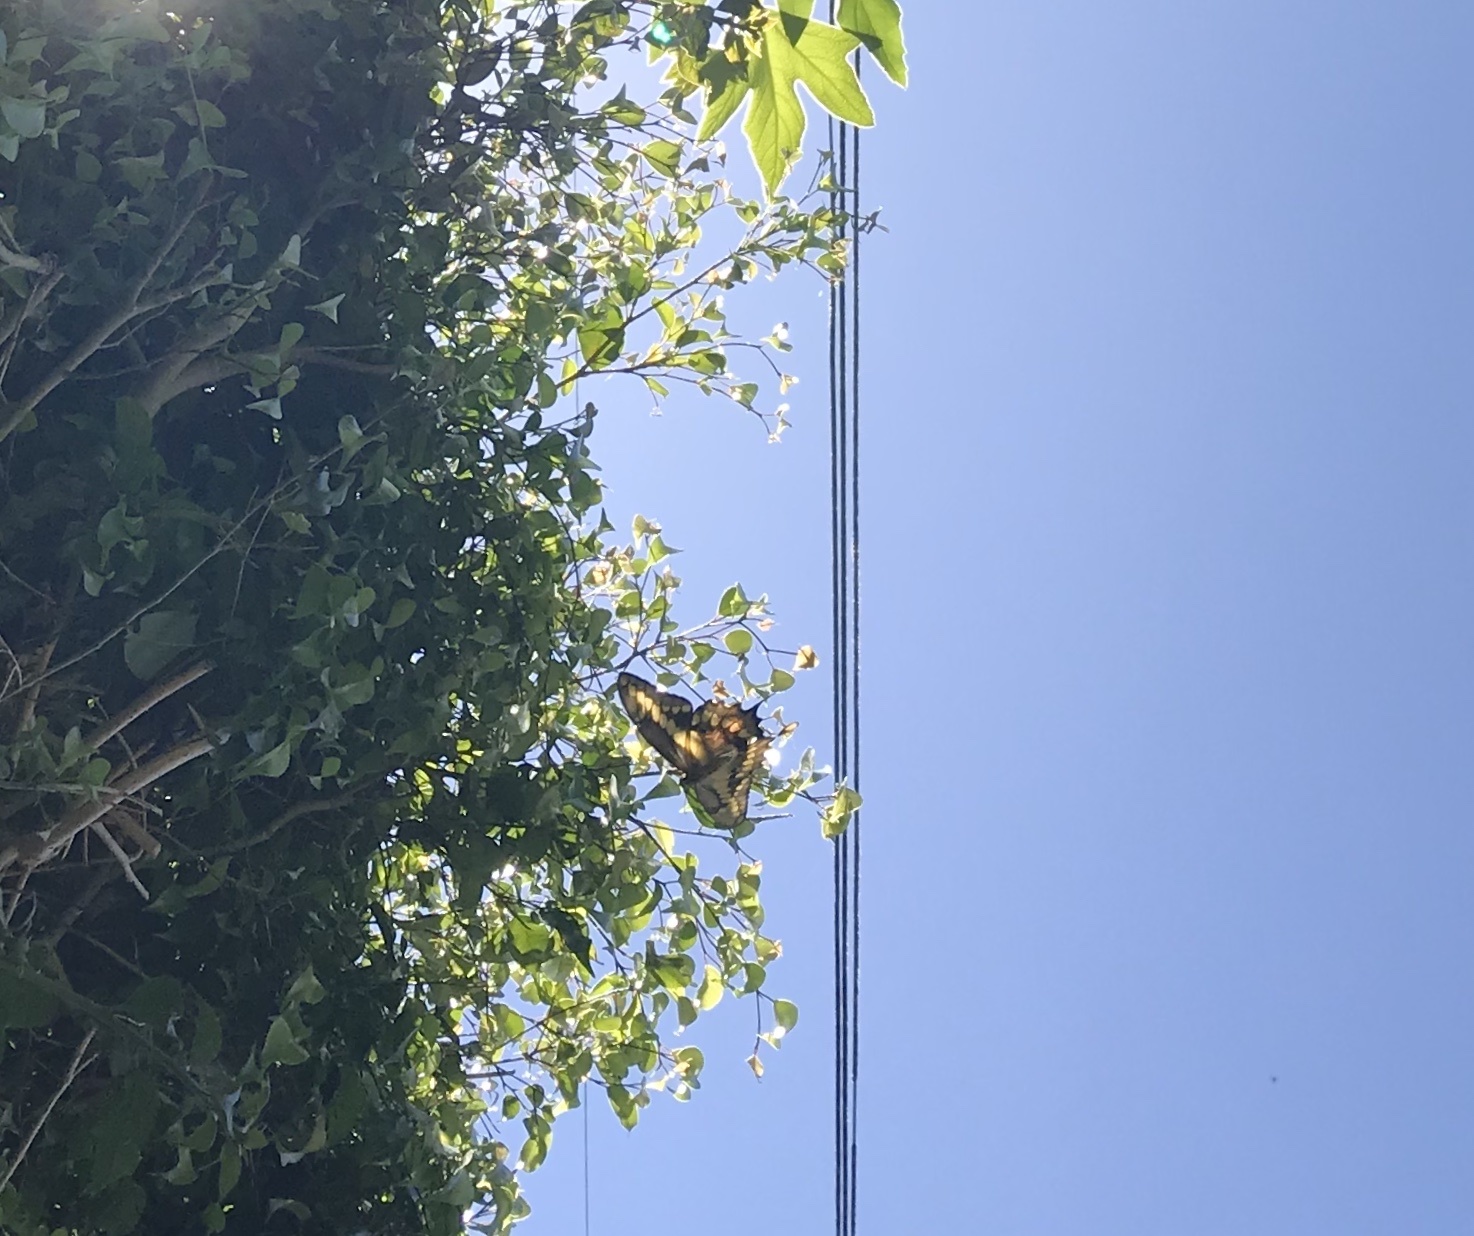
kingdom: Animalia
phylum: Arthropoda
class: Insecta
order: Lepidoptera
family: Papilionidae
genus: Papilio
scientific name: Papilio rumiko
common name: Western giant swallowtail
